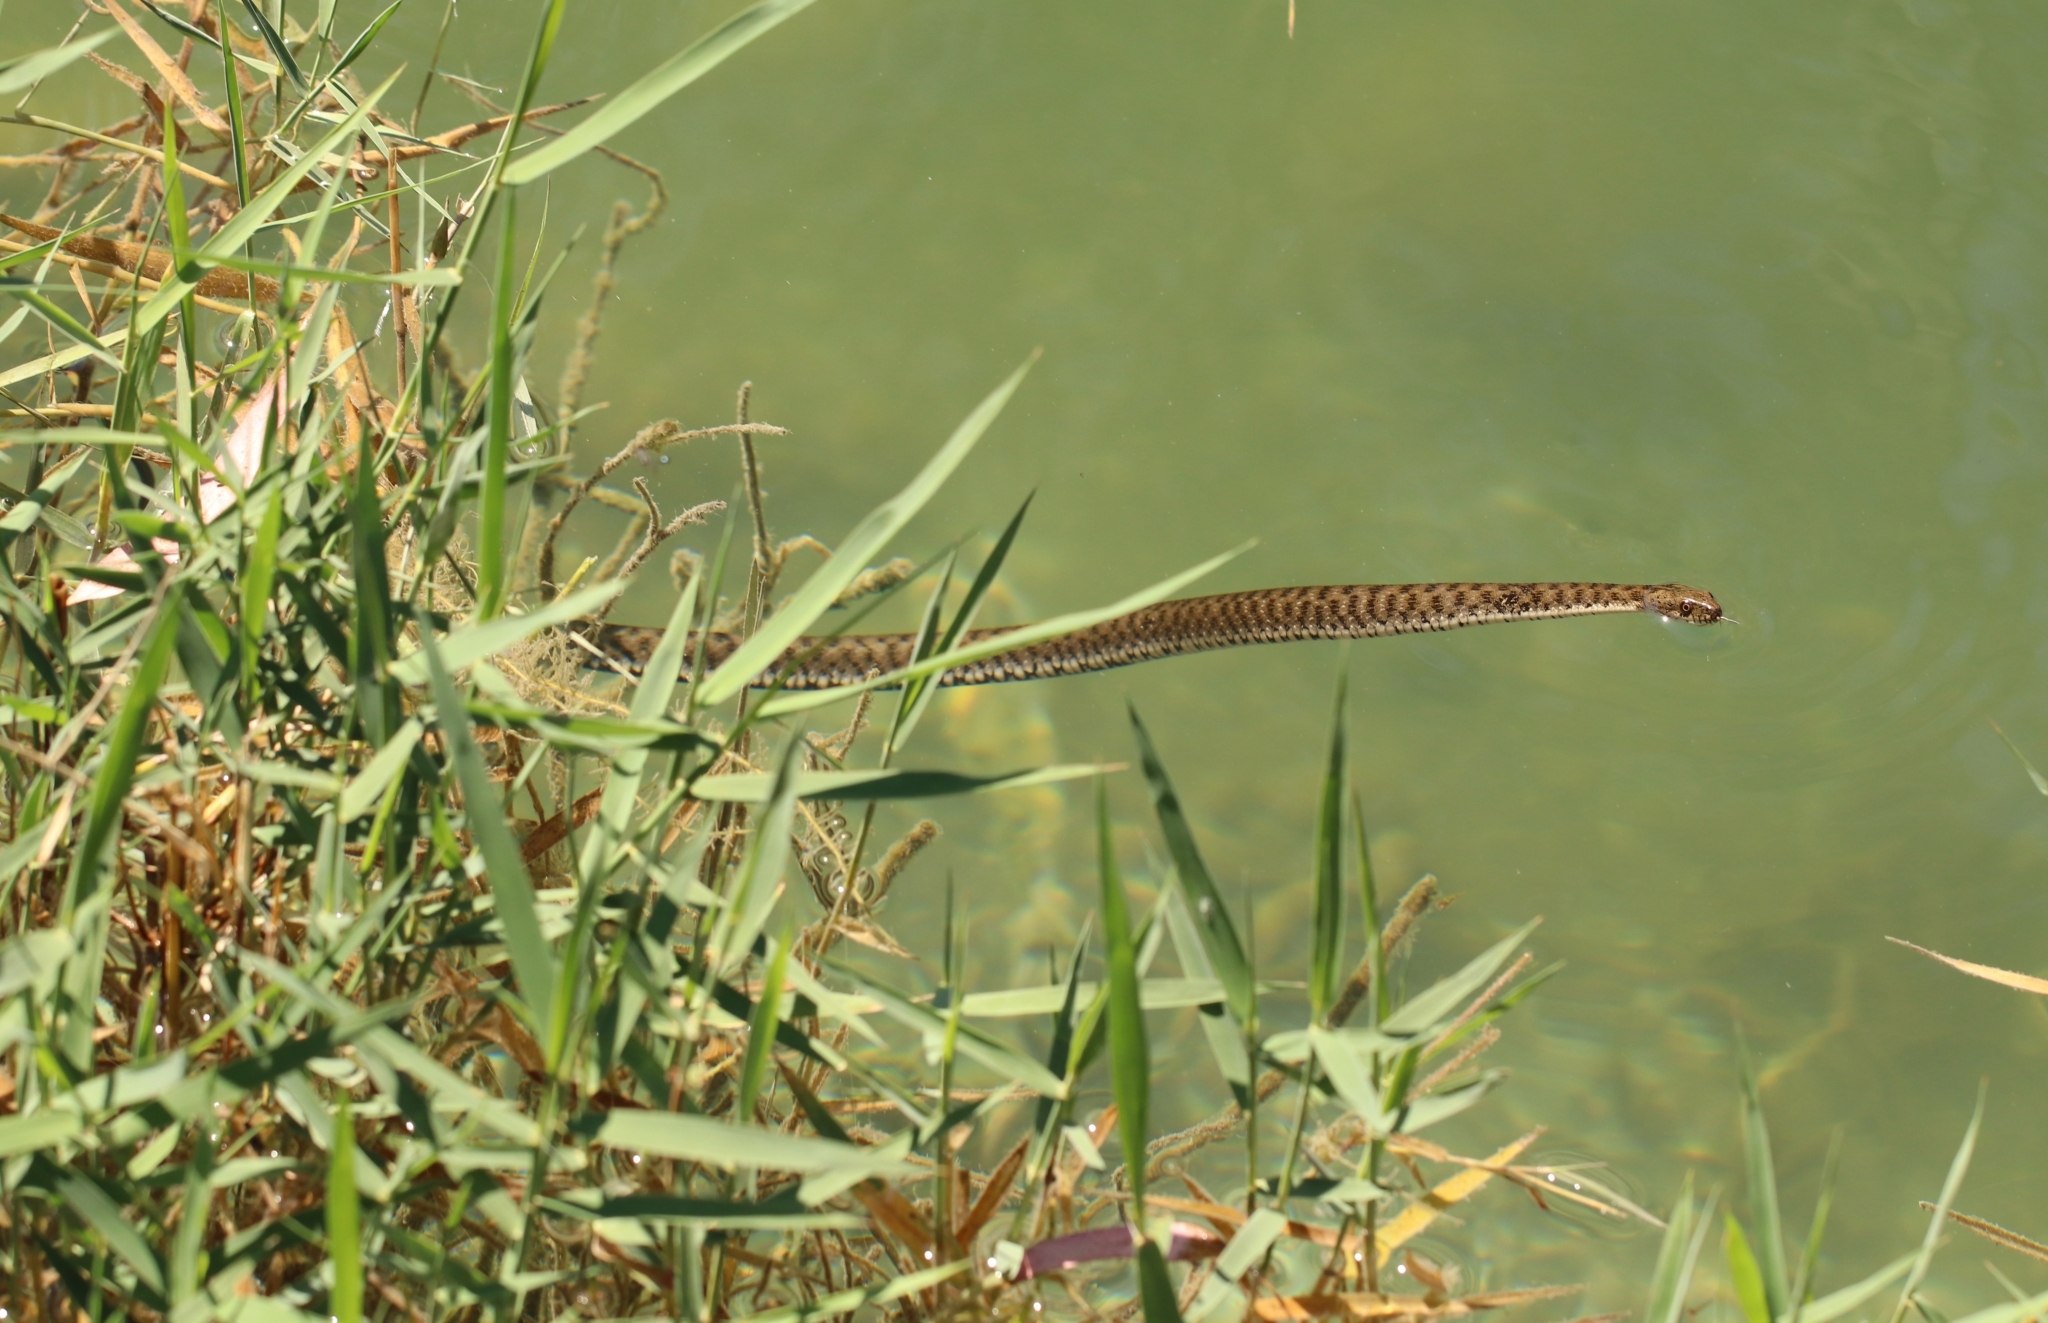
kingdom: Animalia
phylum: Chordata
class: Squamata
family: Colubridae
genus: Natrix
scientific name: Natrix tessellata
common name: Dice snake
